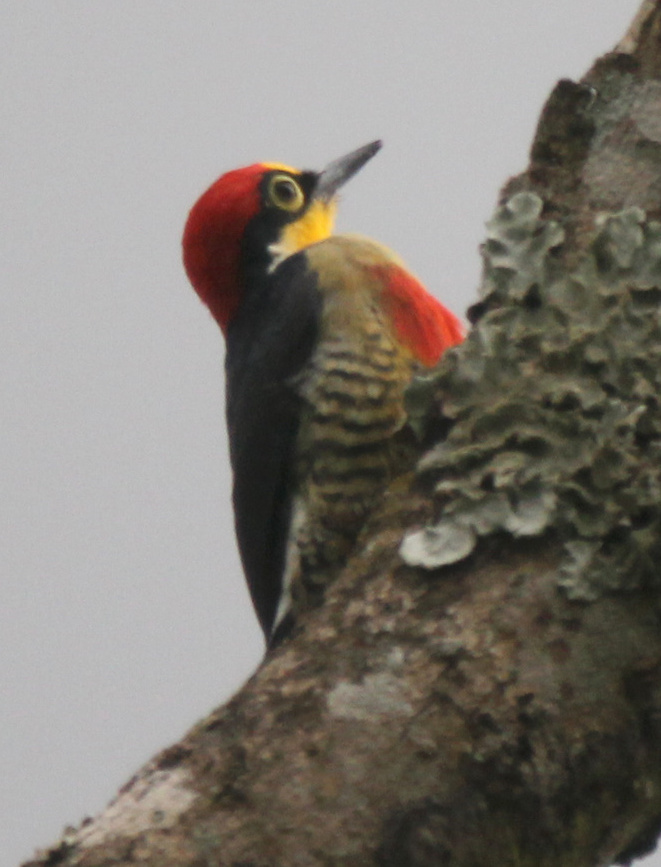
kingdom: Animalia
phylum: Chordata
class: Aves
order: Piciformes
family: Picidae
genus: Melanerpes
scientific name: Melanerpes flavifrons
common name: Yellow-fronted woodpecker
